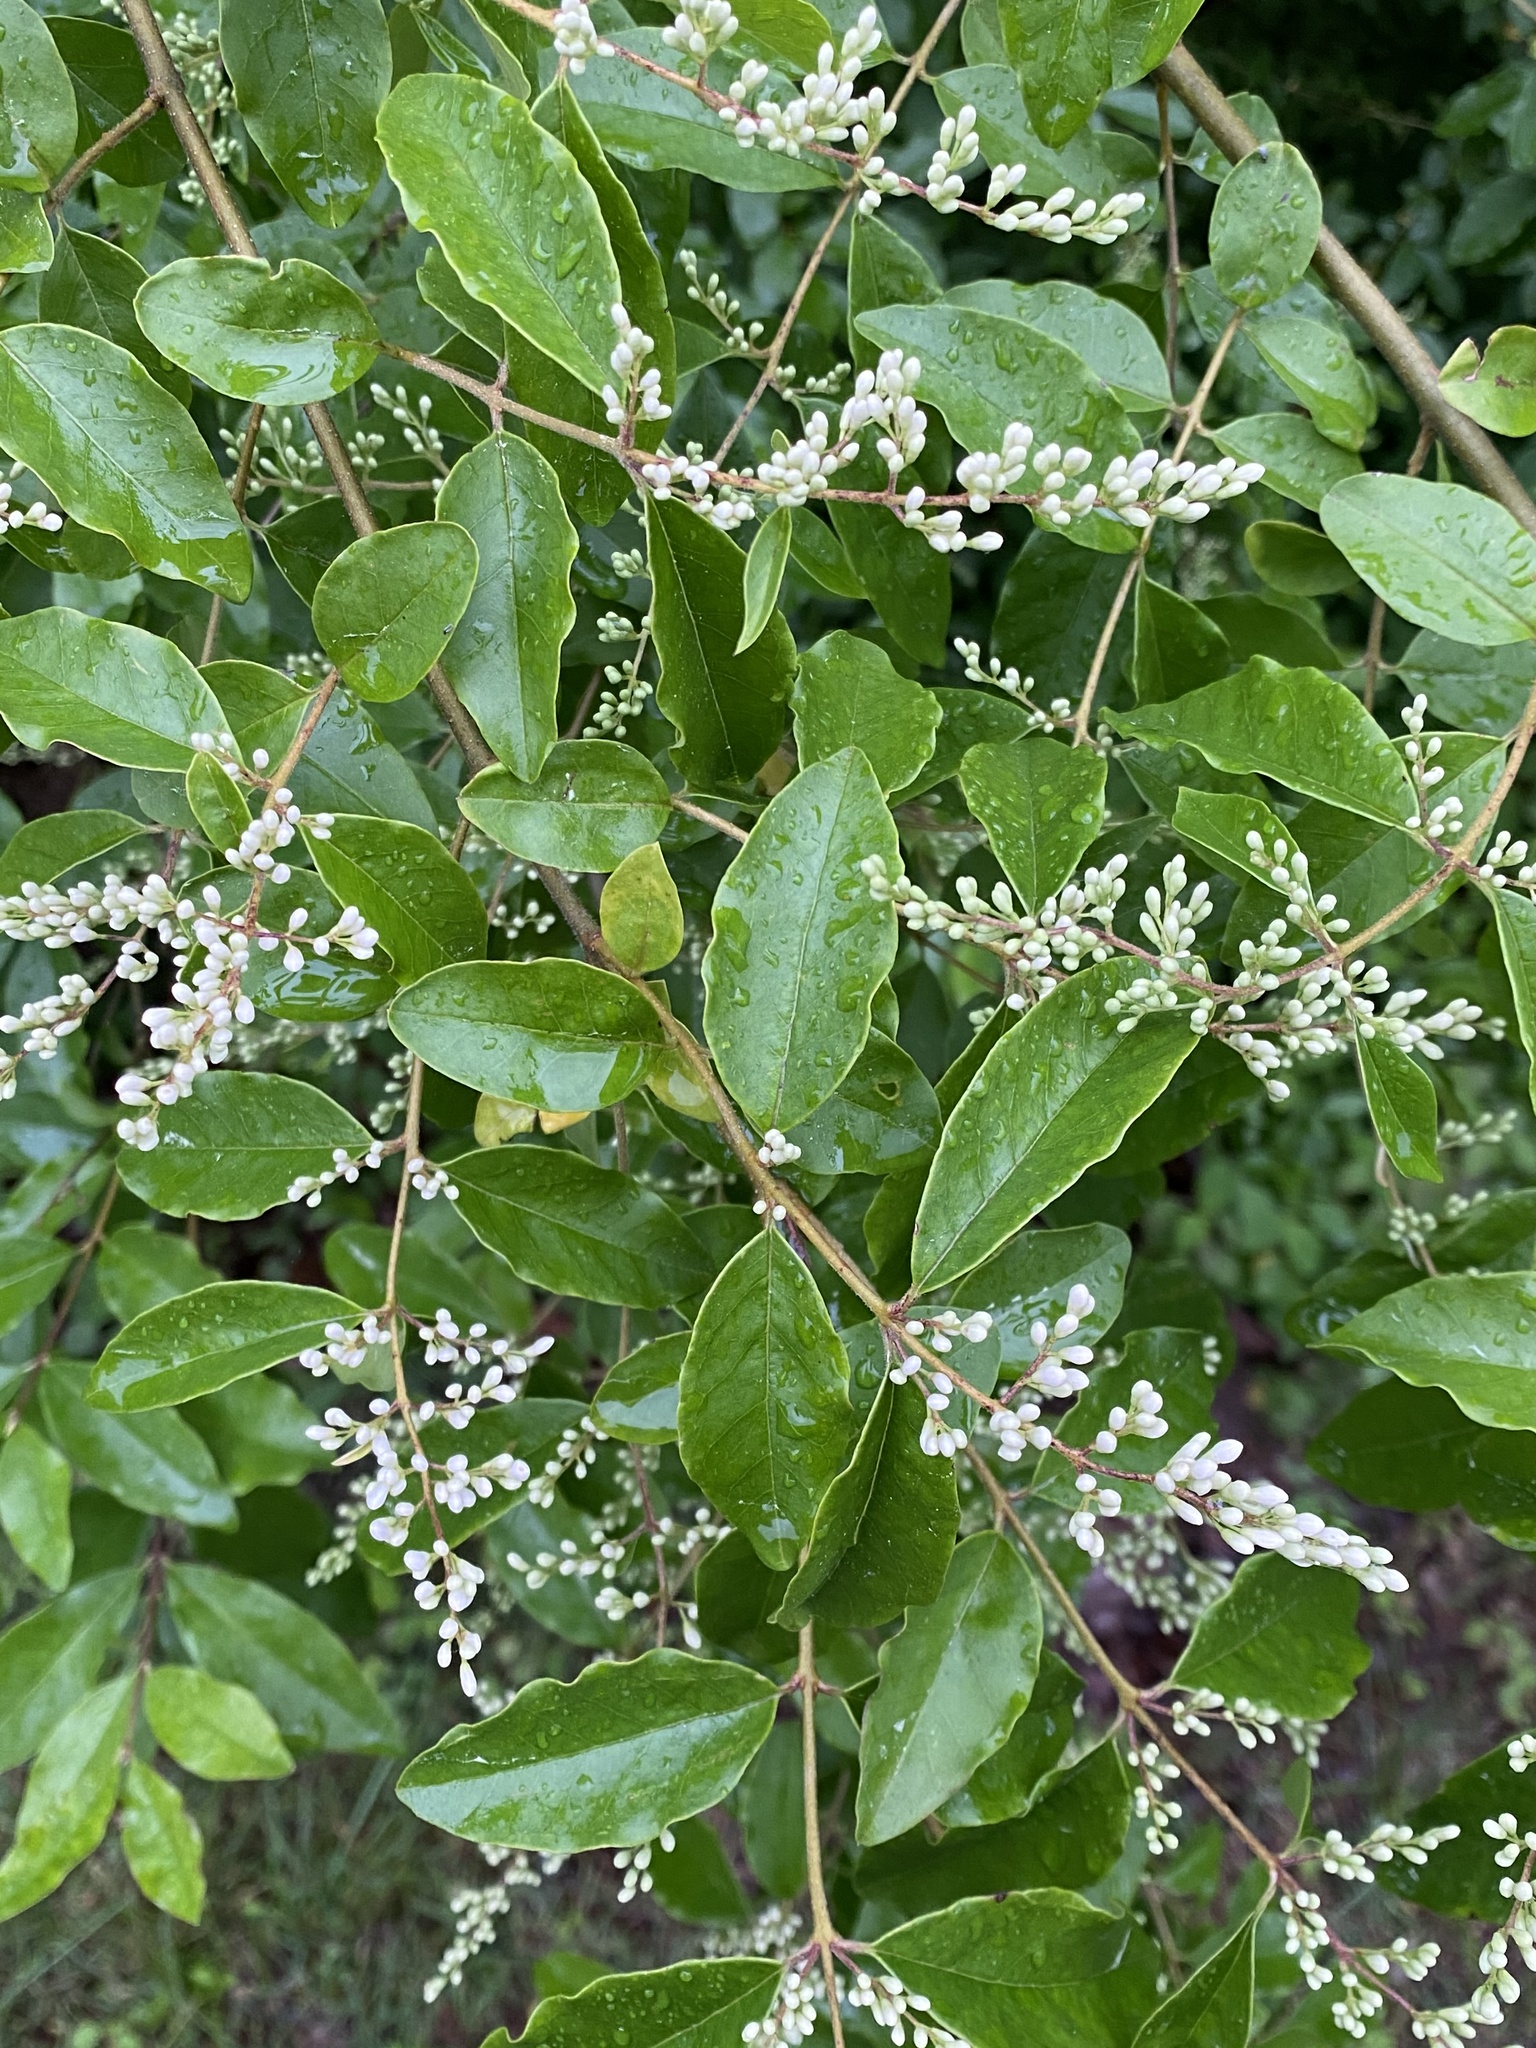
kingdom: Plantae
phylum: Tracheophyta
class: Magnoliopsida
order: Lamiales
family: Oleaceae
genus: Ligustrum
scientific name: Ligustrum sinense
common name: Chinese privet
